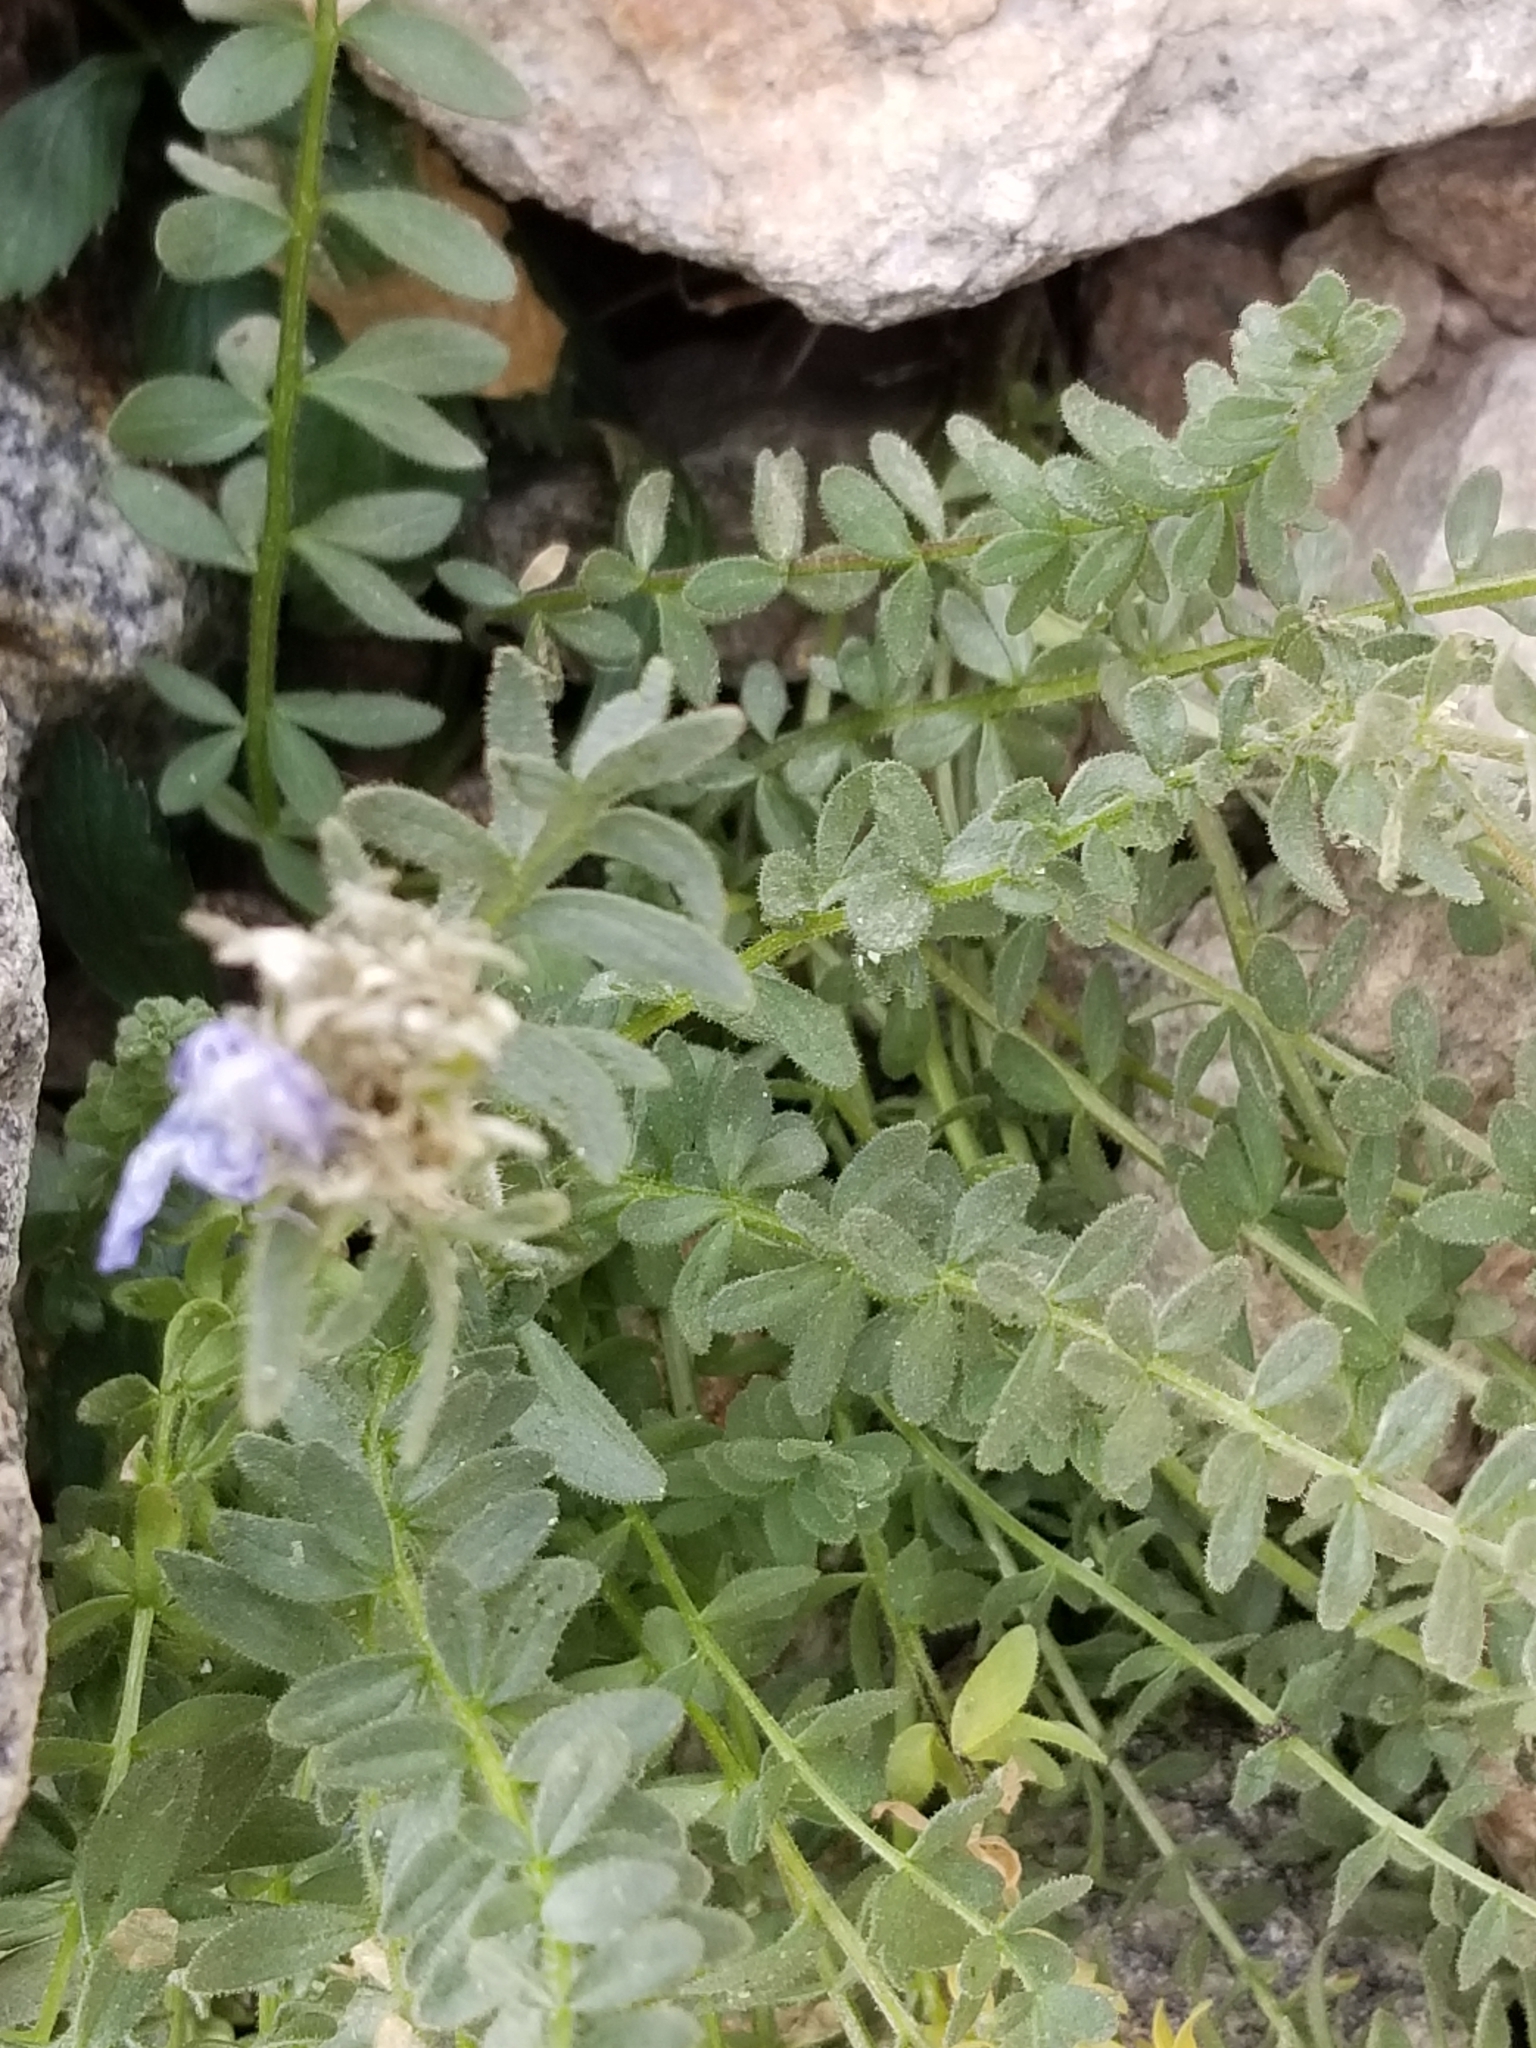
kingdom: Plantae
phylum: Tracheophyta
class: Magnoliopsida
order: Ericales
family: Polemoniaceae
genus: Polemonium
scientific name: Polemonium viscosum
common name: Skunk jacob's-ladder
